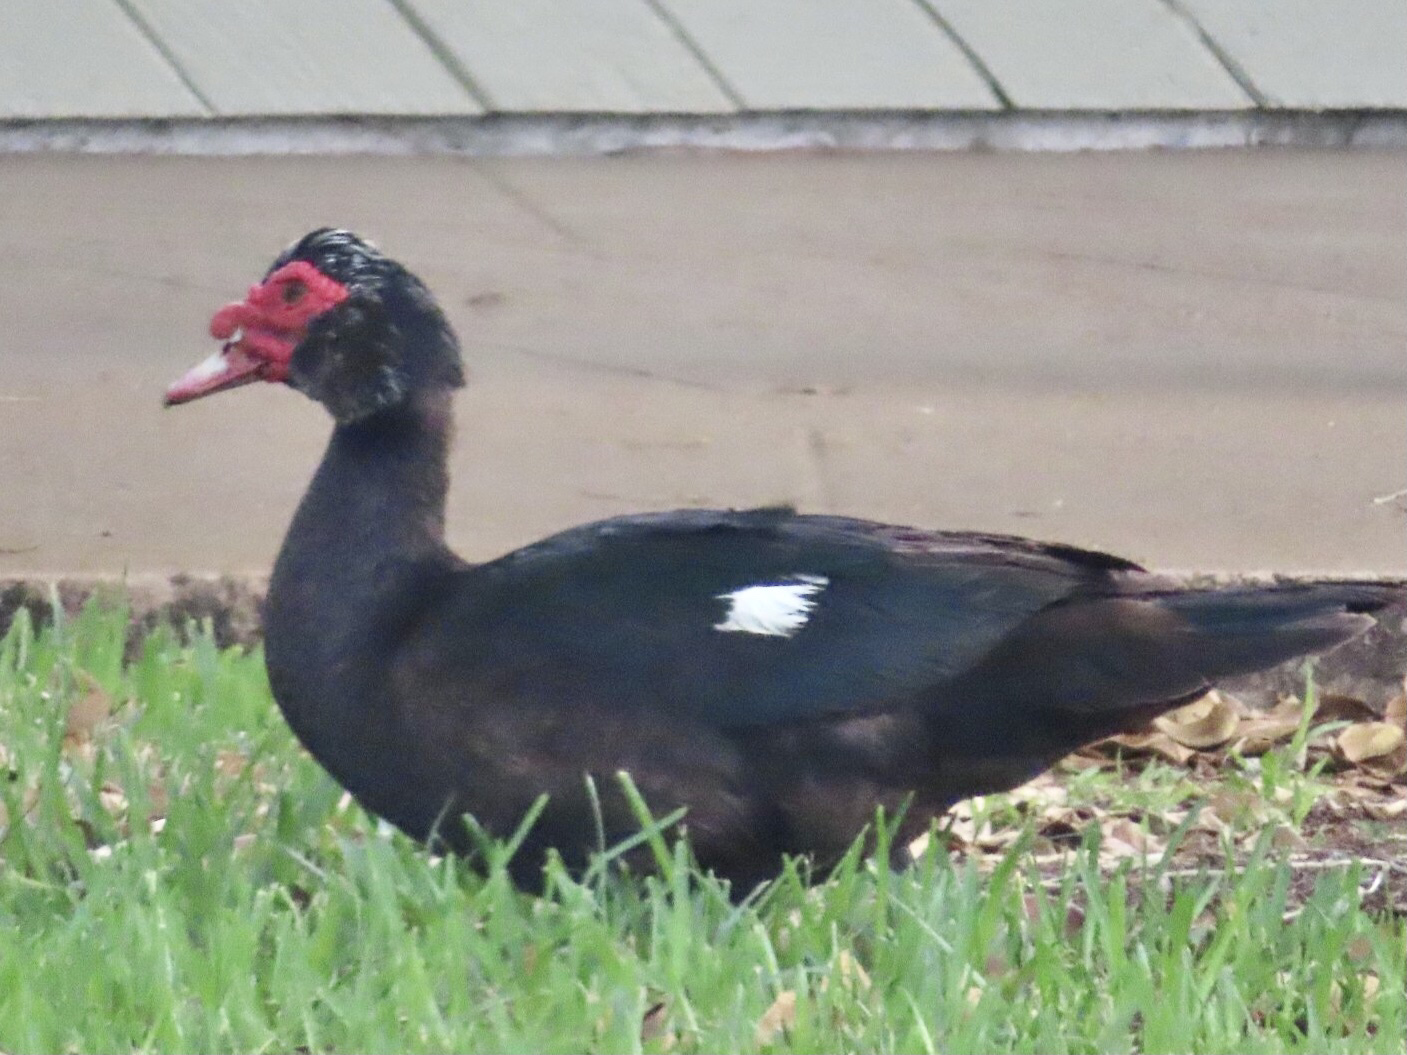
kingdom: Animalia
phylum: Chordata
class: Aves
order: Anseriformes
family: Anatidae
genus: Cairina
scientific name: Cairina moschata
